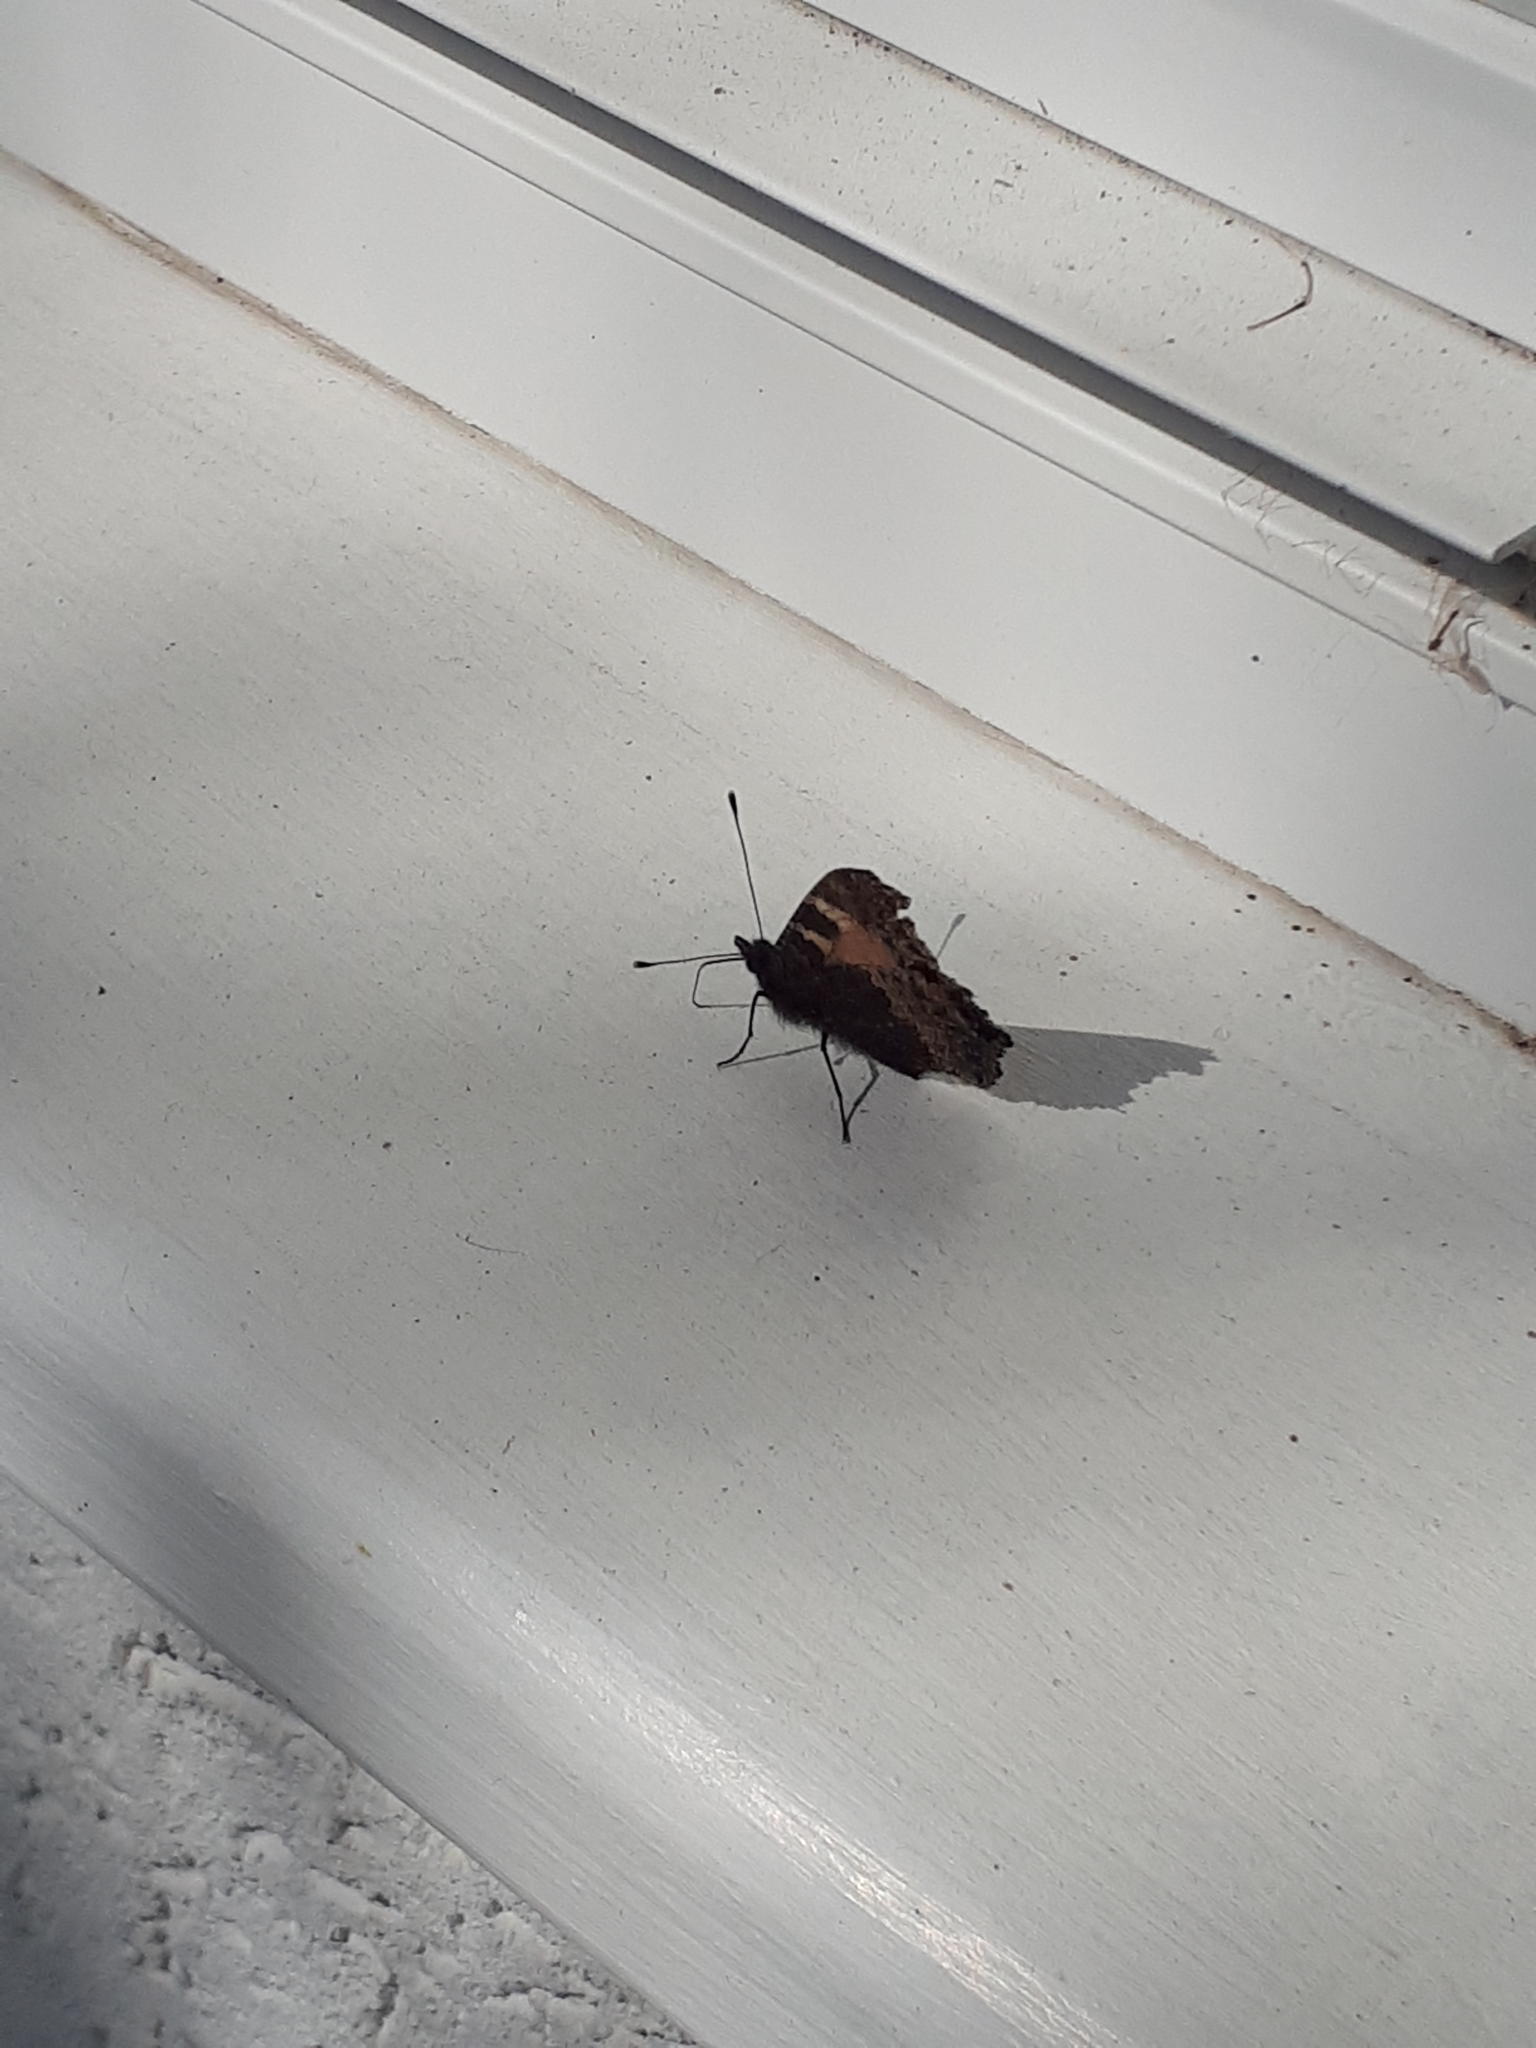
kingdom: Animalia
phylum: Arthropoda
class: Insecta
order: Lepidoptera
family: Nymphalidae
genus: Aglais
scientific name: Aglais urticae
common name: Small tortoiseshell
